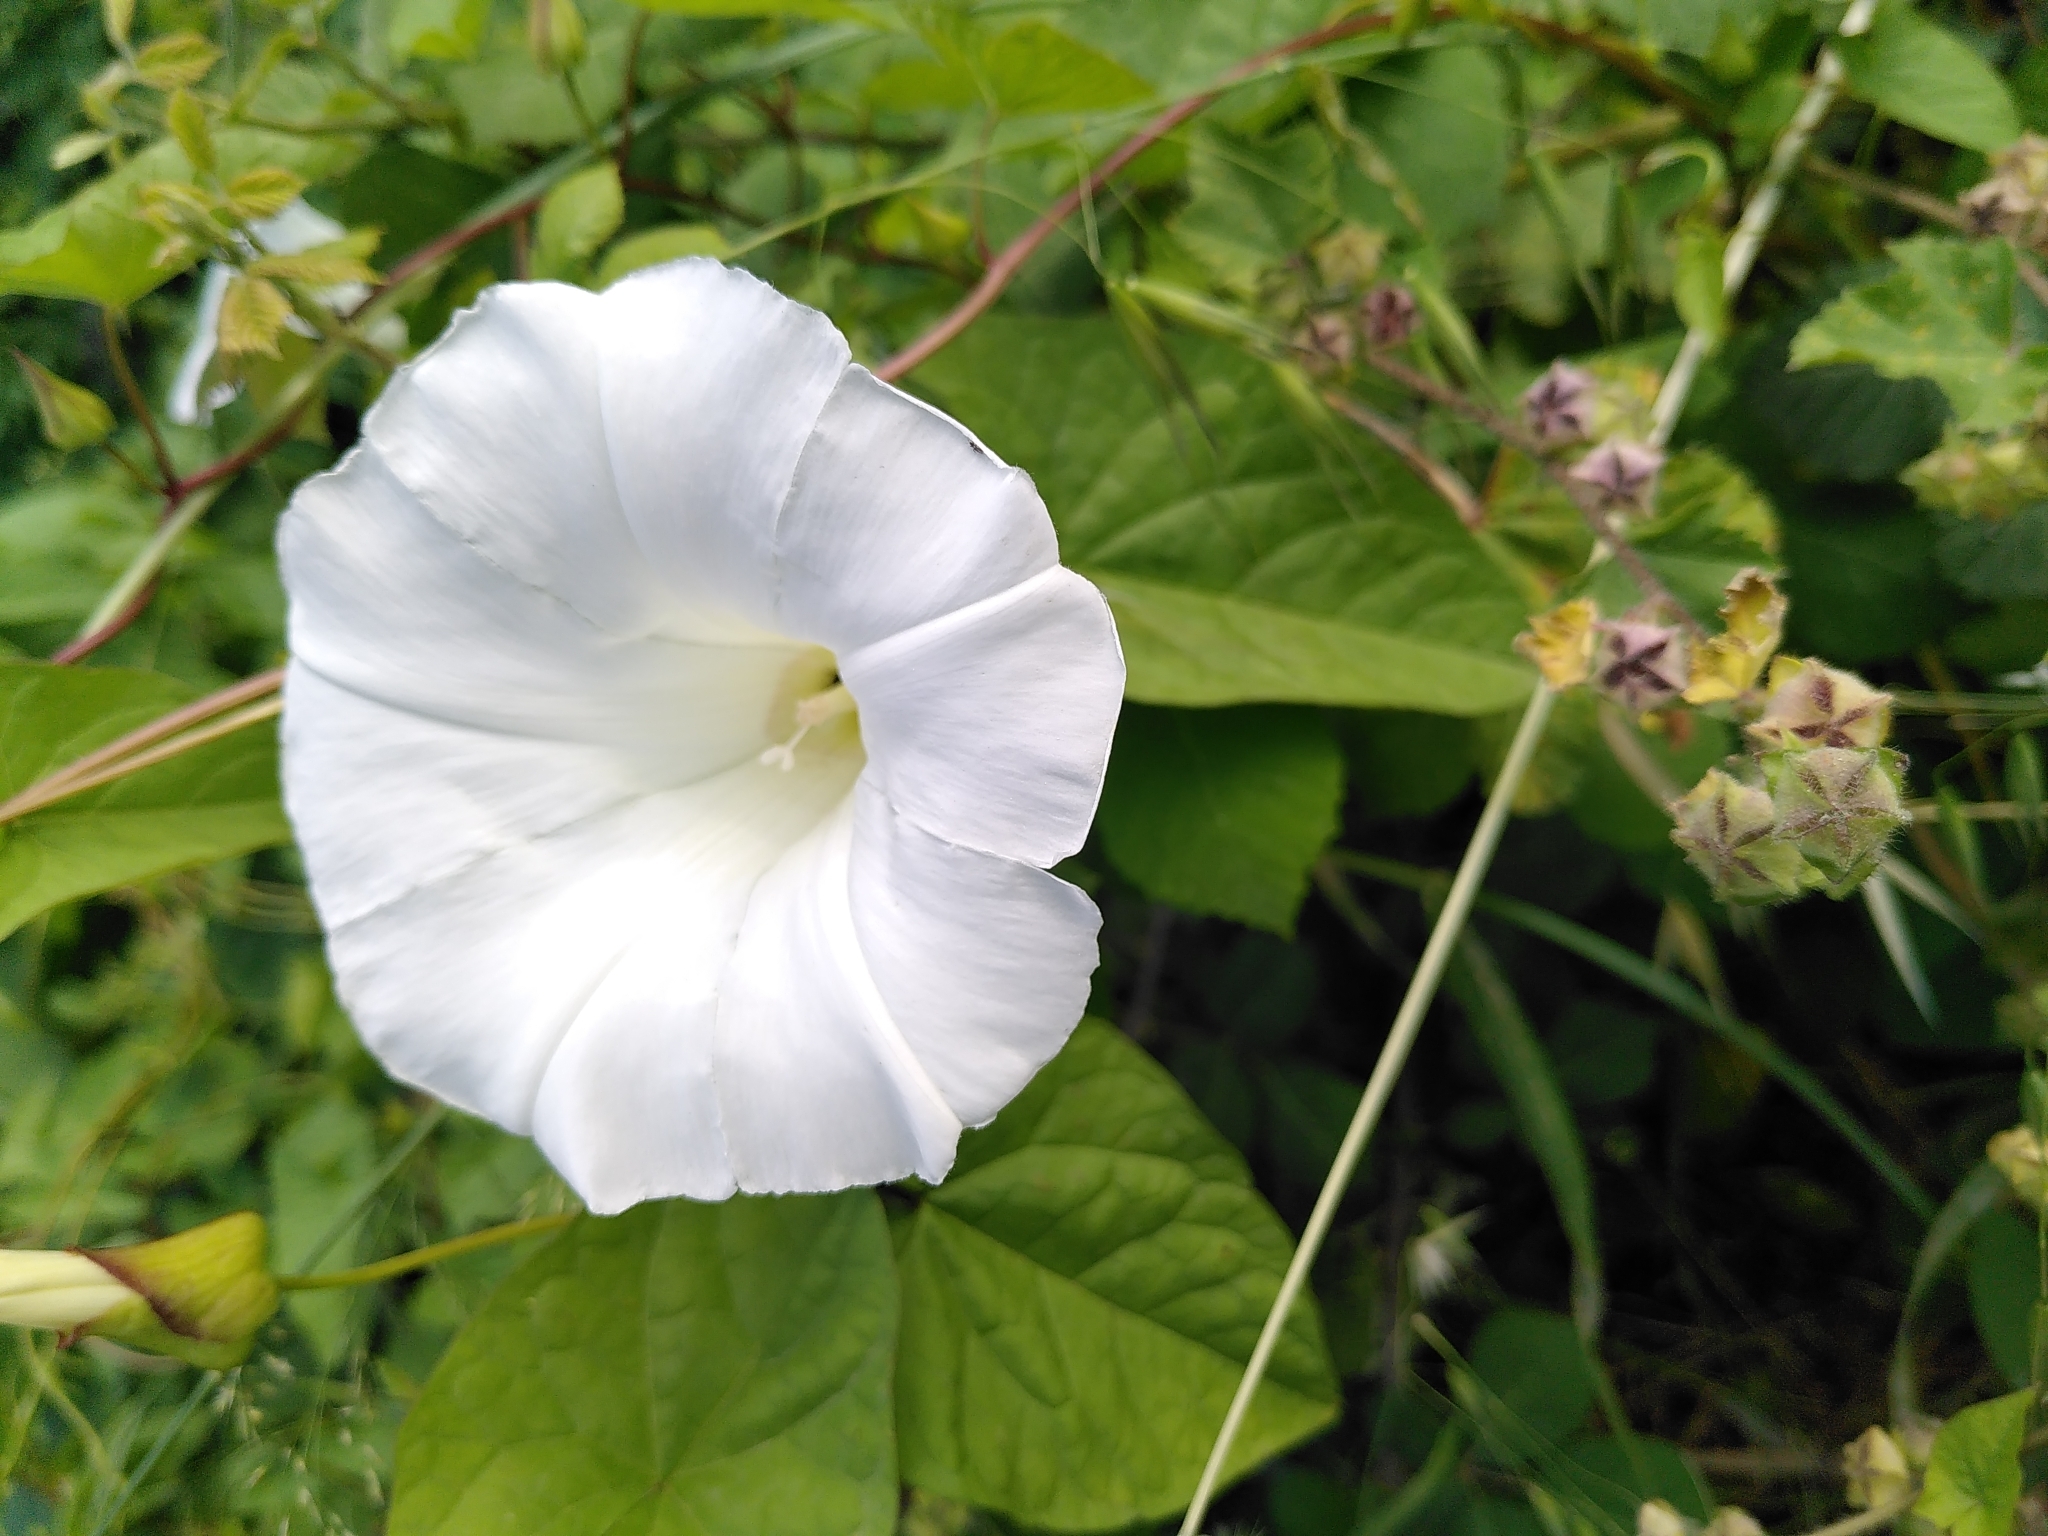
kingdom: Plantae
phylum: Tracheophyta
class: Magnoliopsida
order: Solanales
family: Convolvulaceae
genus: Calystegia
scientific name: Calystegia silvatica
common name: Large bindweed
